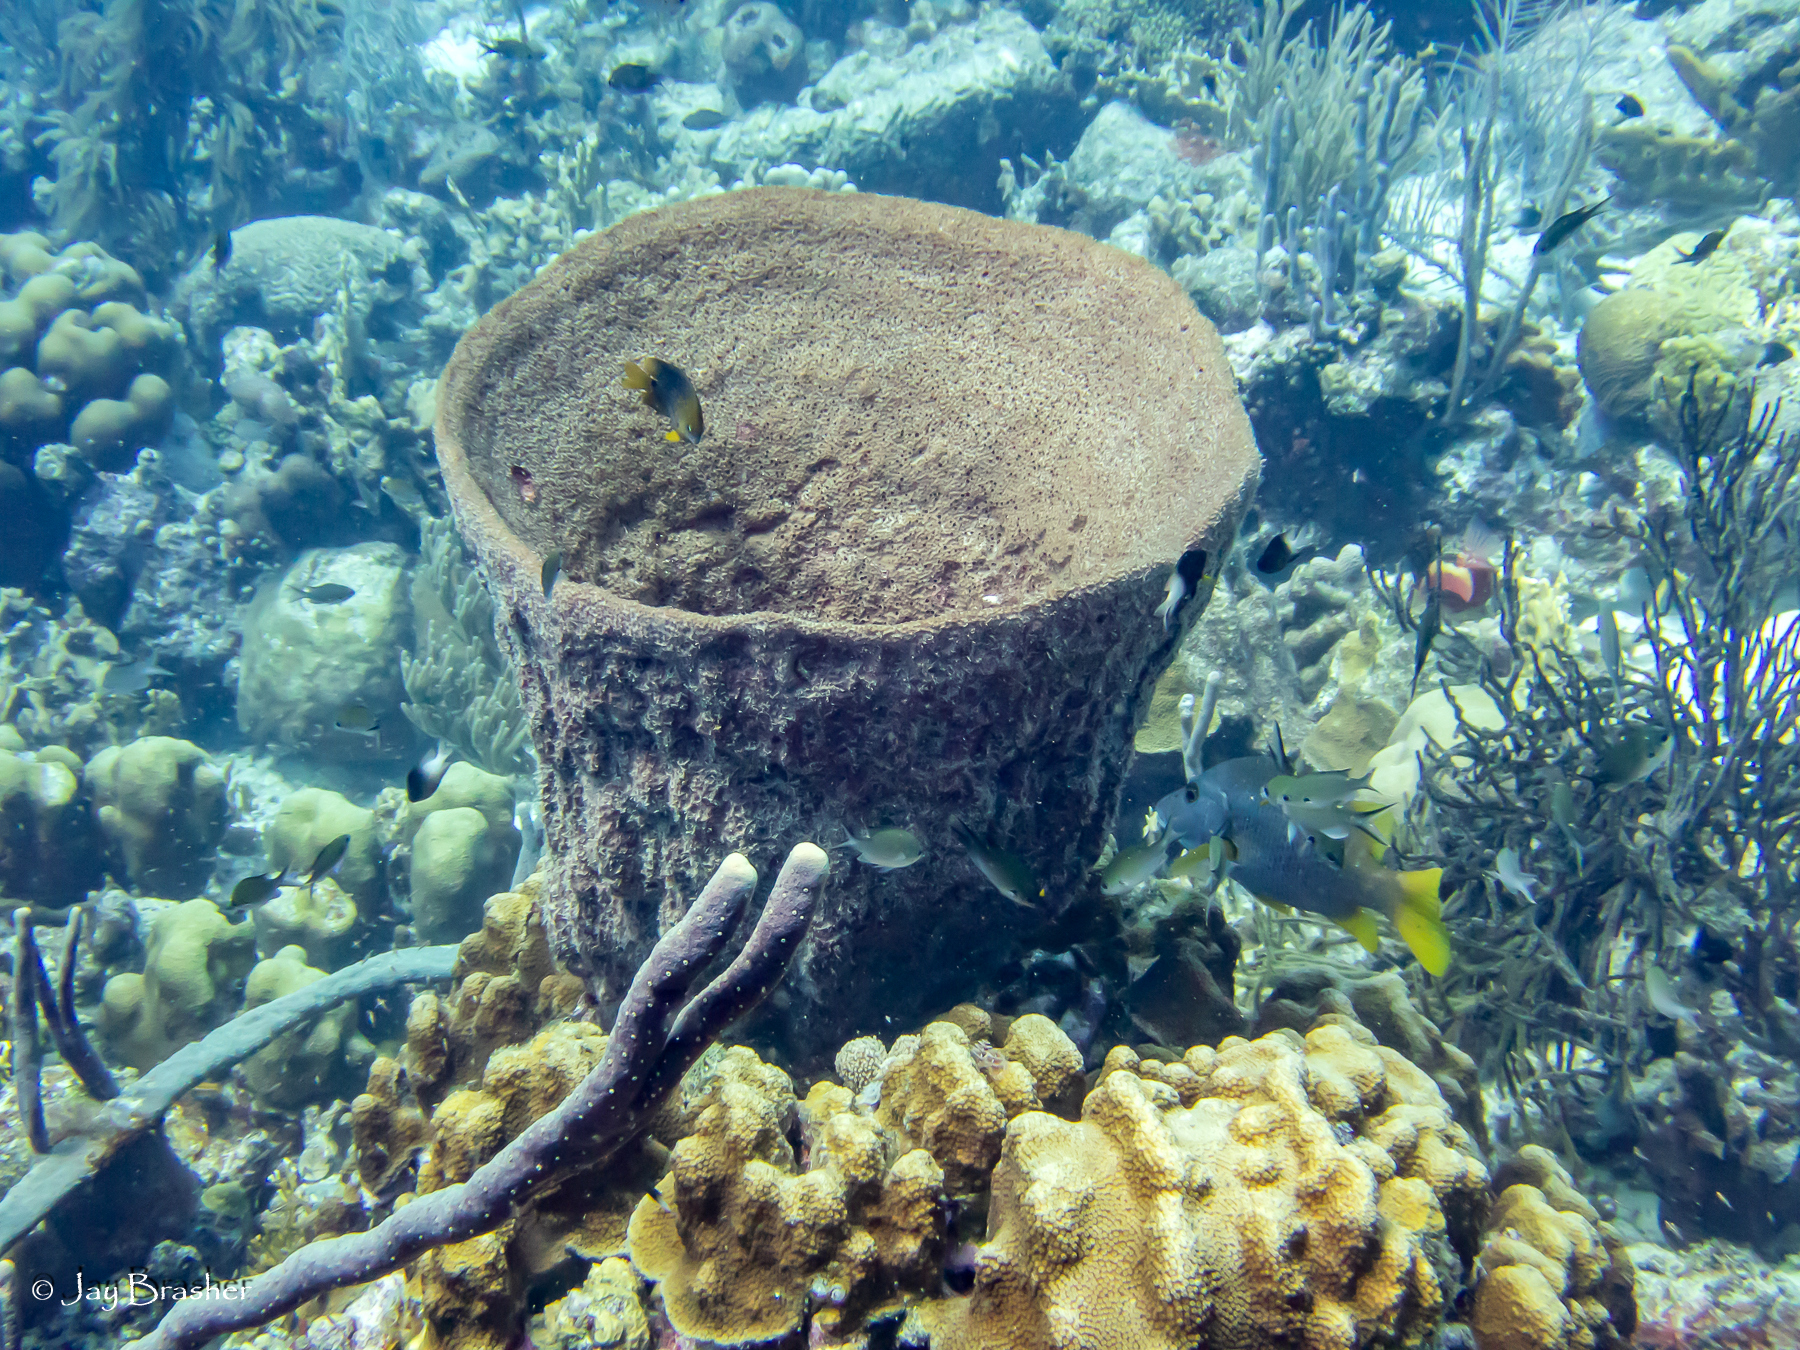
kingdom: Animalia
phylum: Cnidaria
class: Anthozoa
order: Scleractinia
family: Merulinidae
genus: Orbicella
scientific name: Orbicella faveolata
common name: Mountainous star coral
